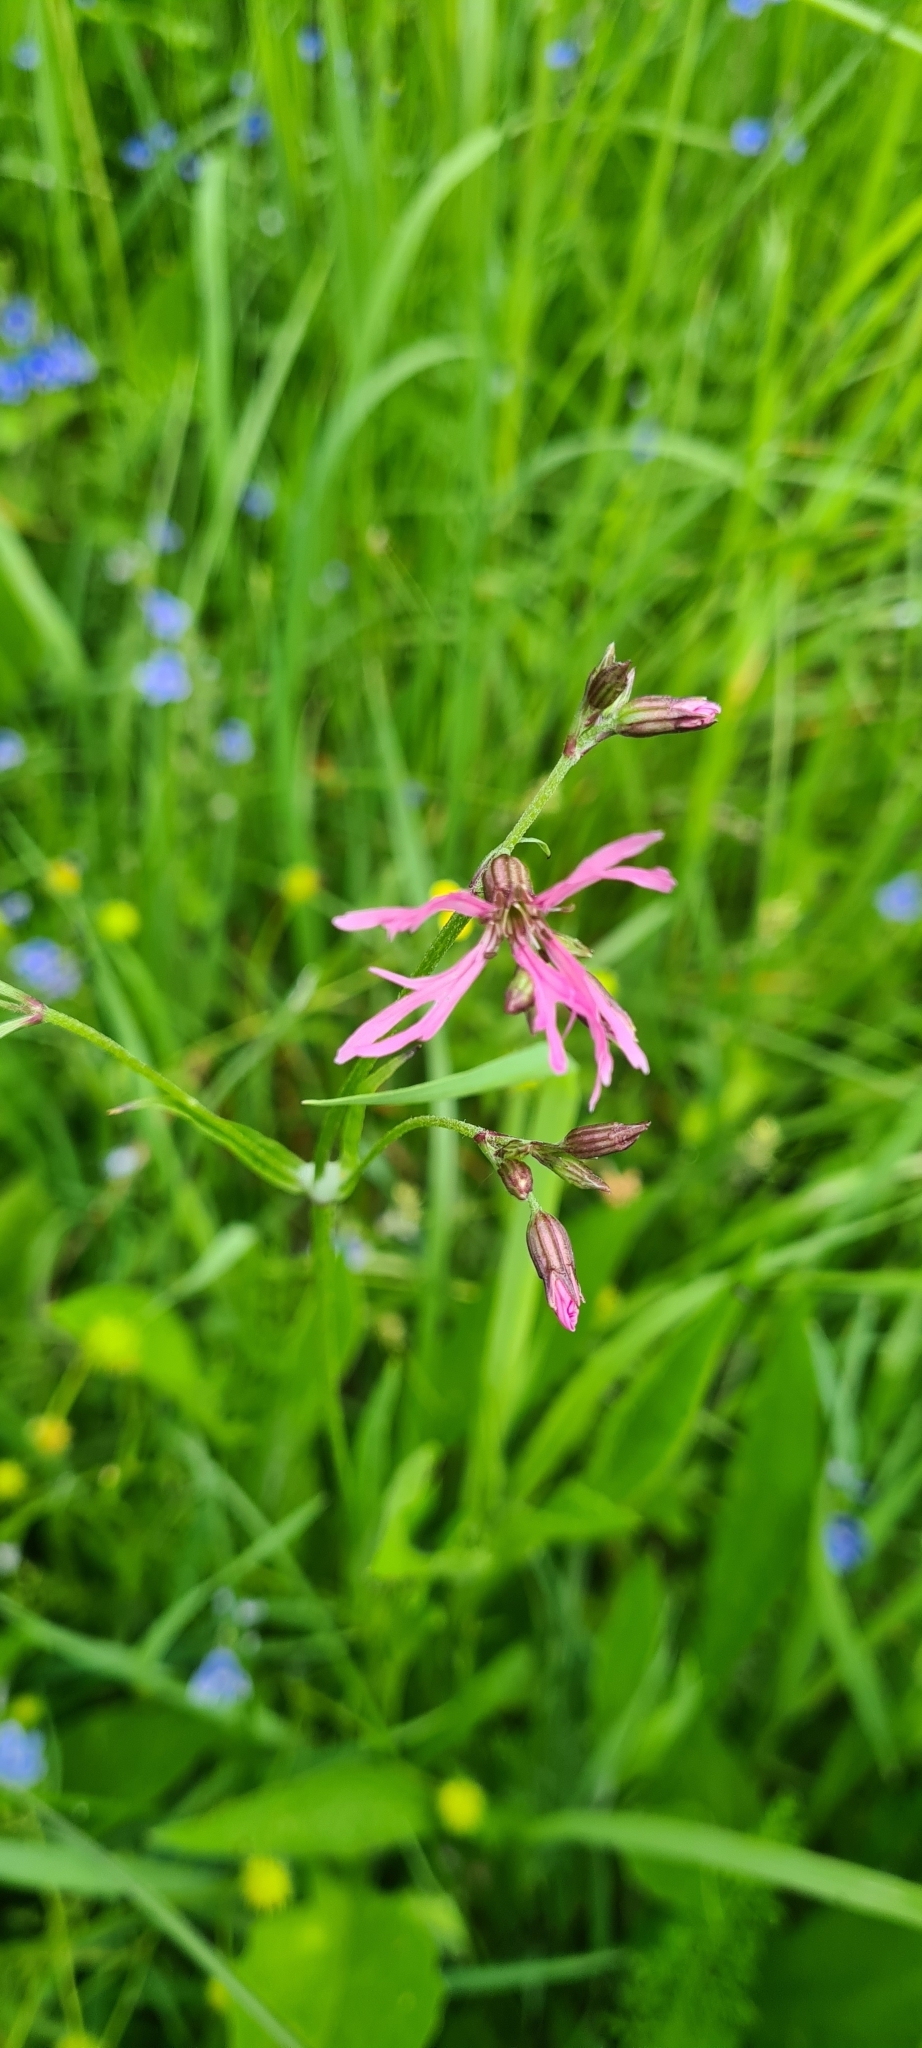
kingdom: Plantae
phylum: Tracheophyta
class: Magnoliopsida
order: Caryophyllales
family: Caryophyllaceae
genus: Silene
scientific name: Silene flos-cuculi
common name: Ragged-robin
